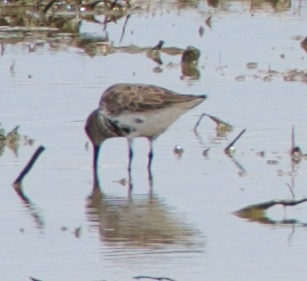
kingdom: Animalia
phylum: Chordata
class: Aves
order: Charadriiformes
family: Scolopacidae
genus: Calidris
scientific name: Calidris alpina
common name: Dunlin
